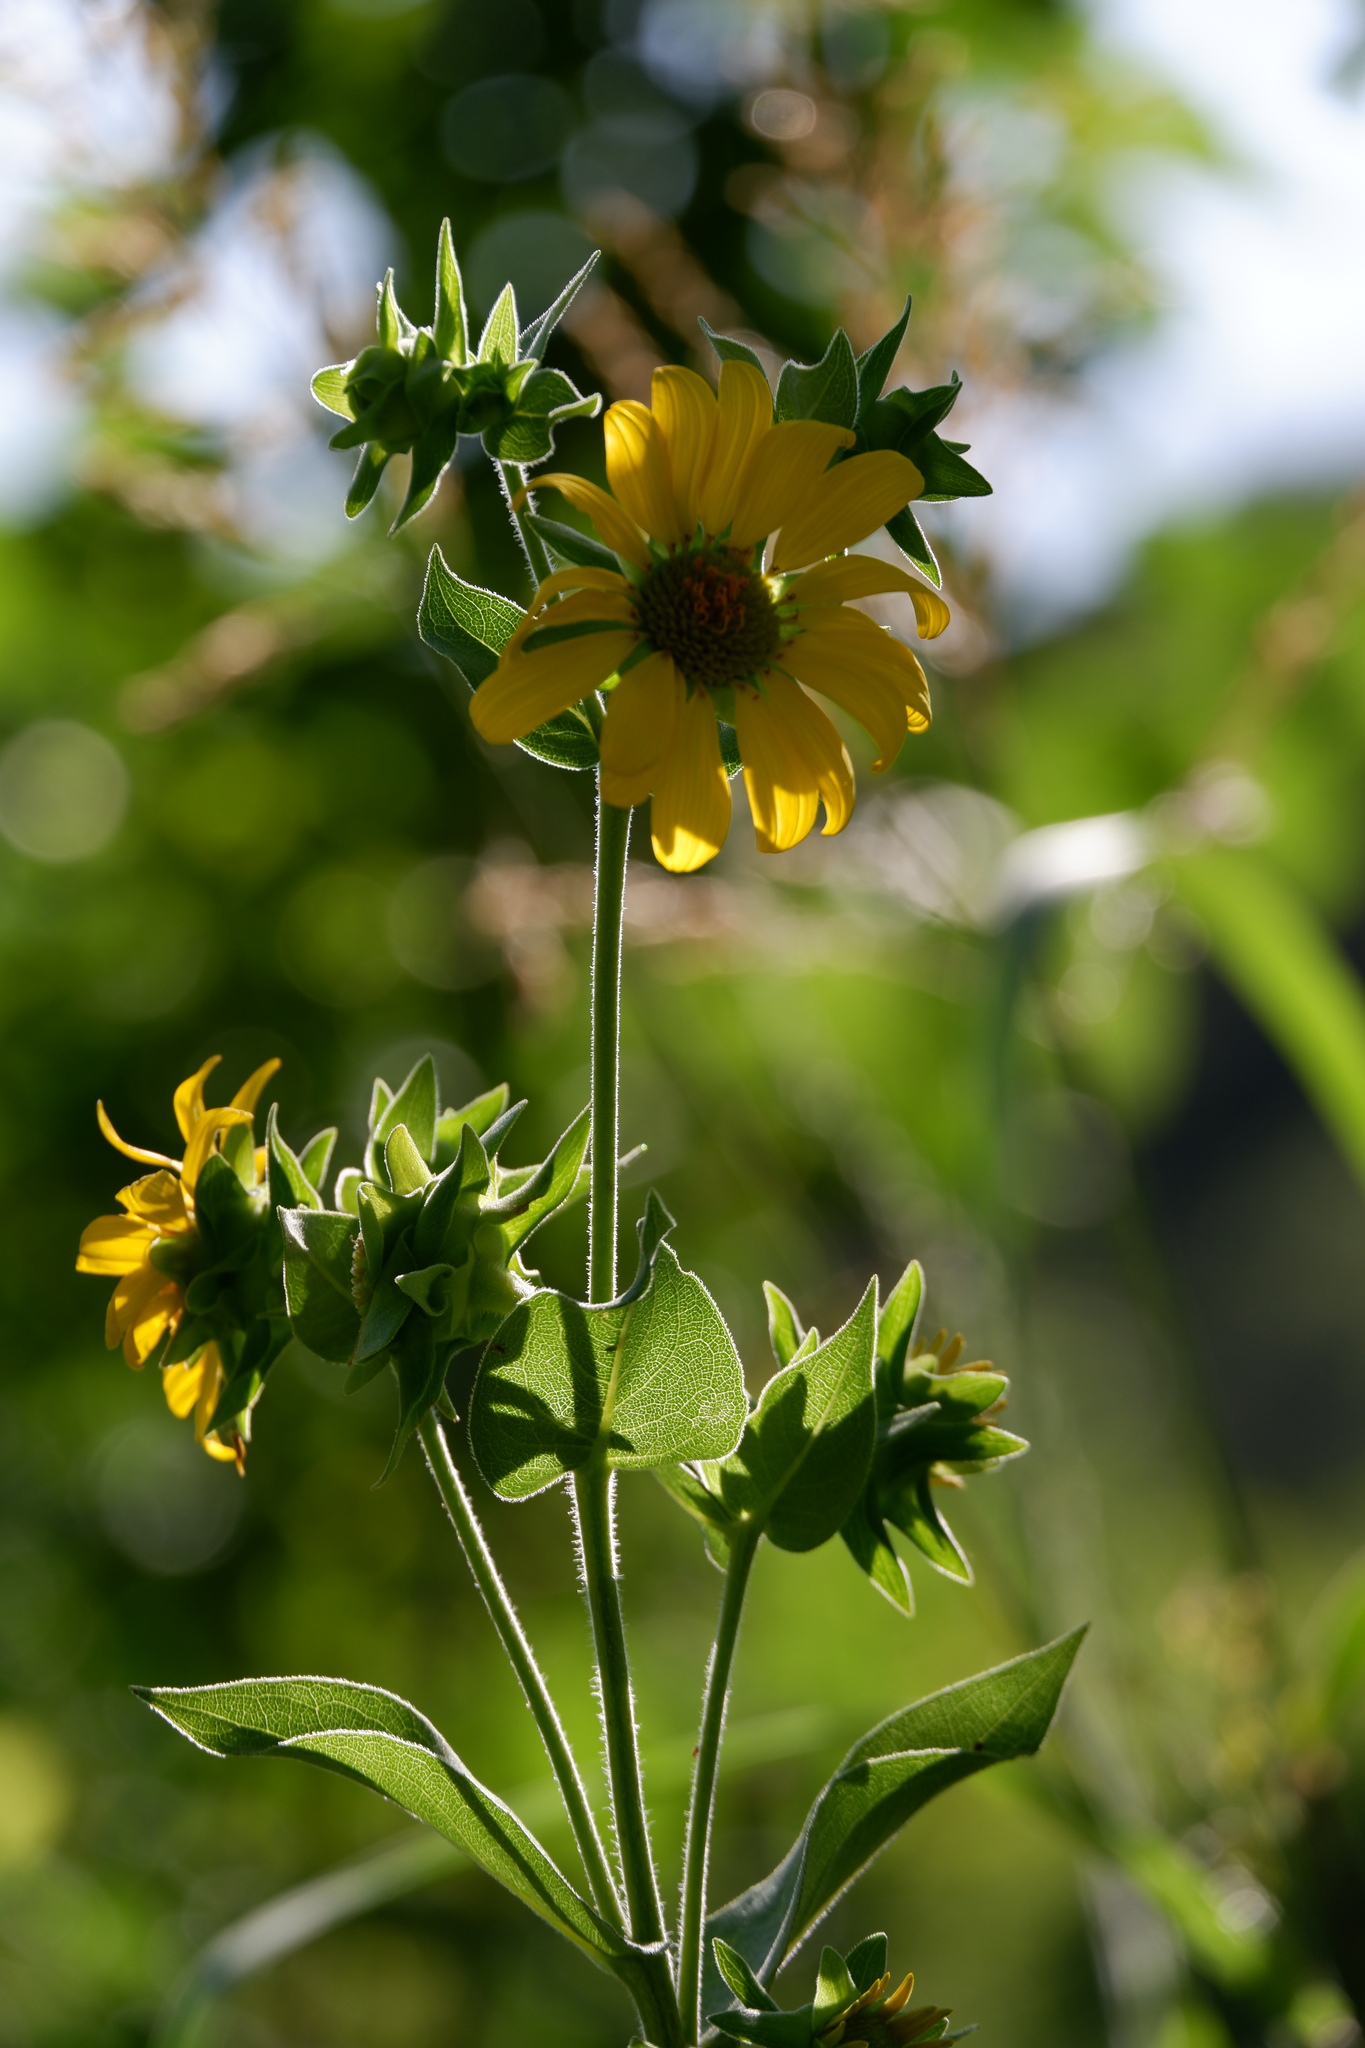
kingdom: Plantae
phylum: Tracheophyta
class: Magnoliopsida
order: Asterales
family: Asteraceae
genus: Silphium
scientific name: Silphium radula
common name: Roughleaf rosinweed
